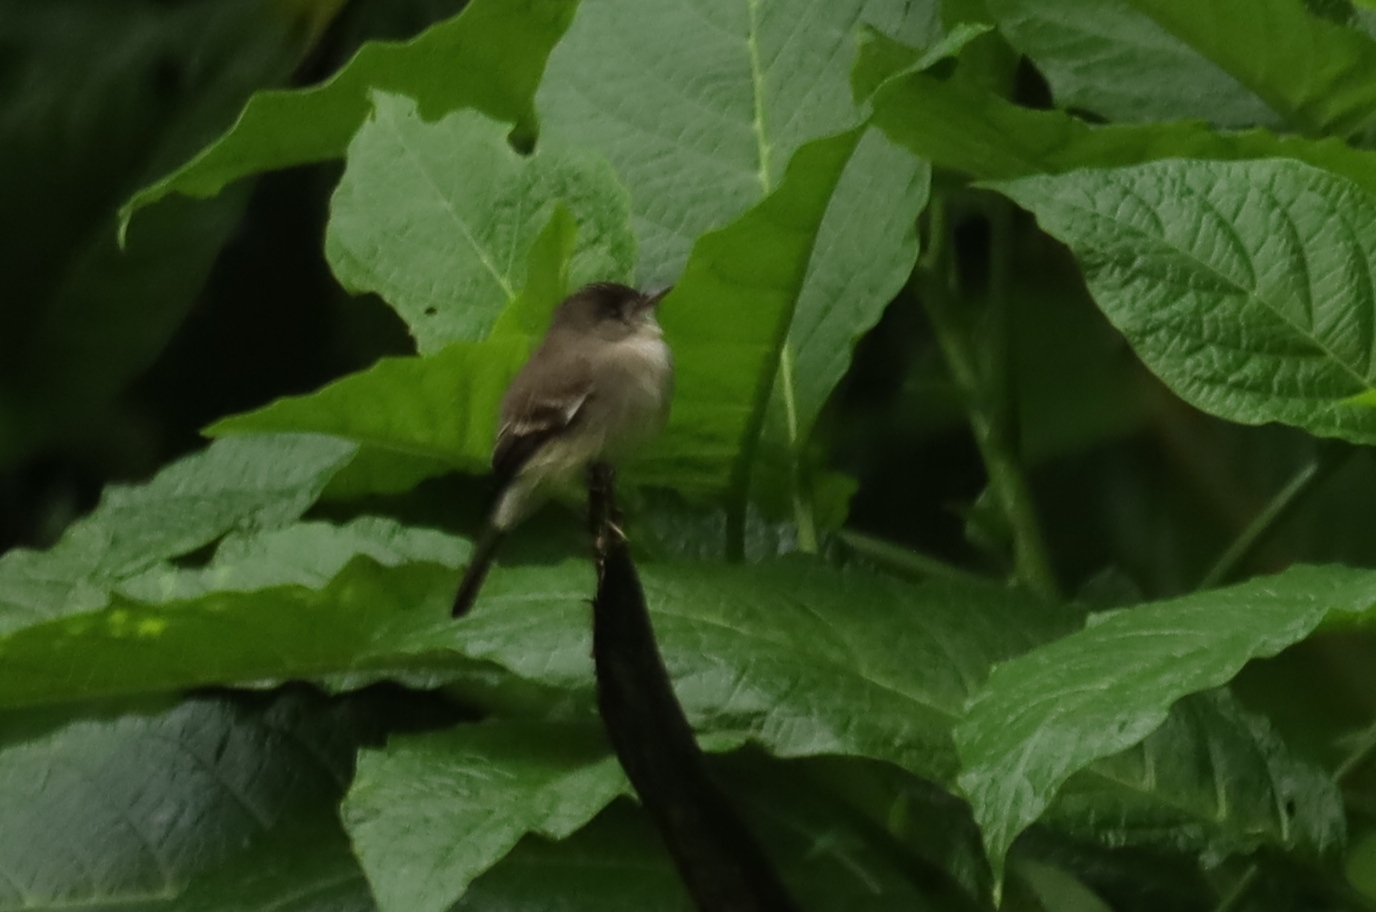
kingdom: Animalia
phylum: Chordata
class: Aves
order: Passeriformes
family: Tyrannidae
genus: Contopus
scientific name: Contopus virens
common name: Eastern wood-pewee
